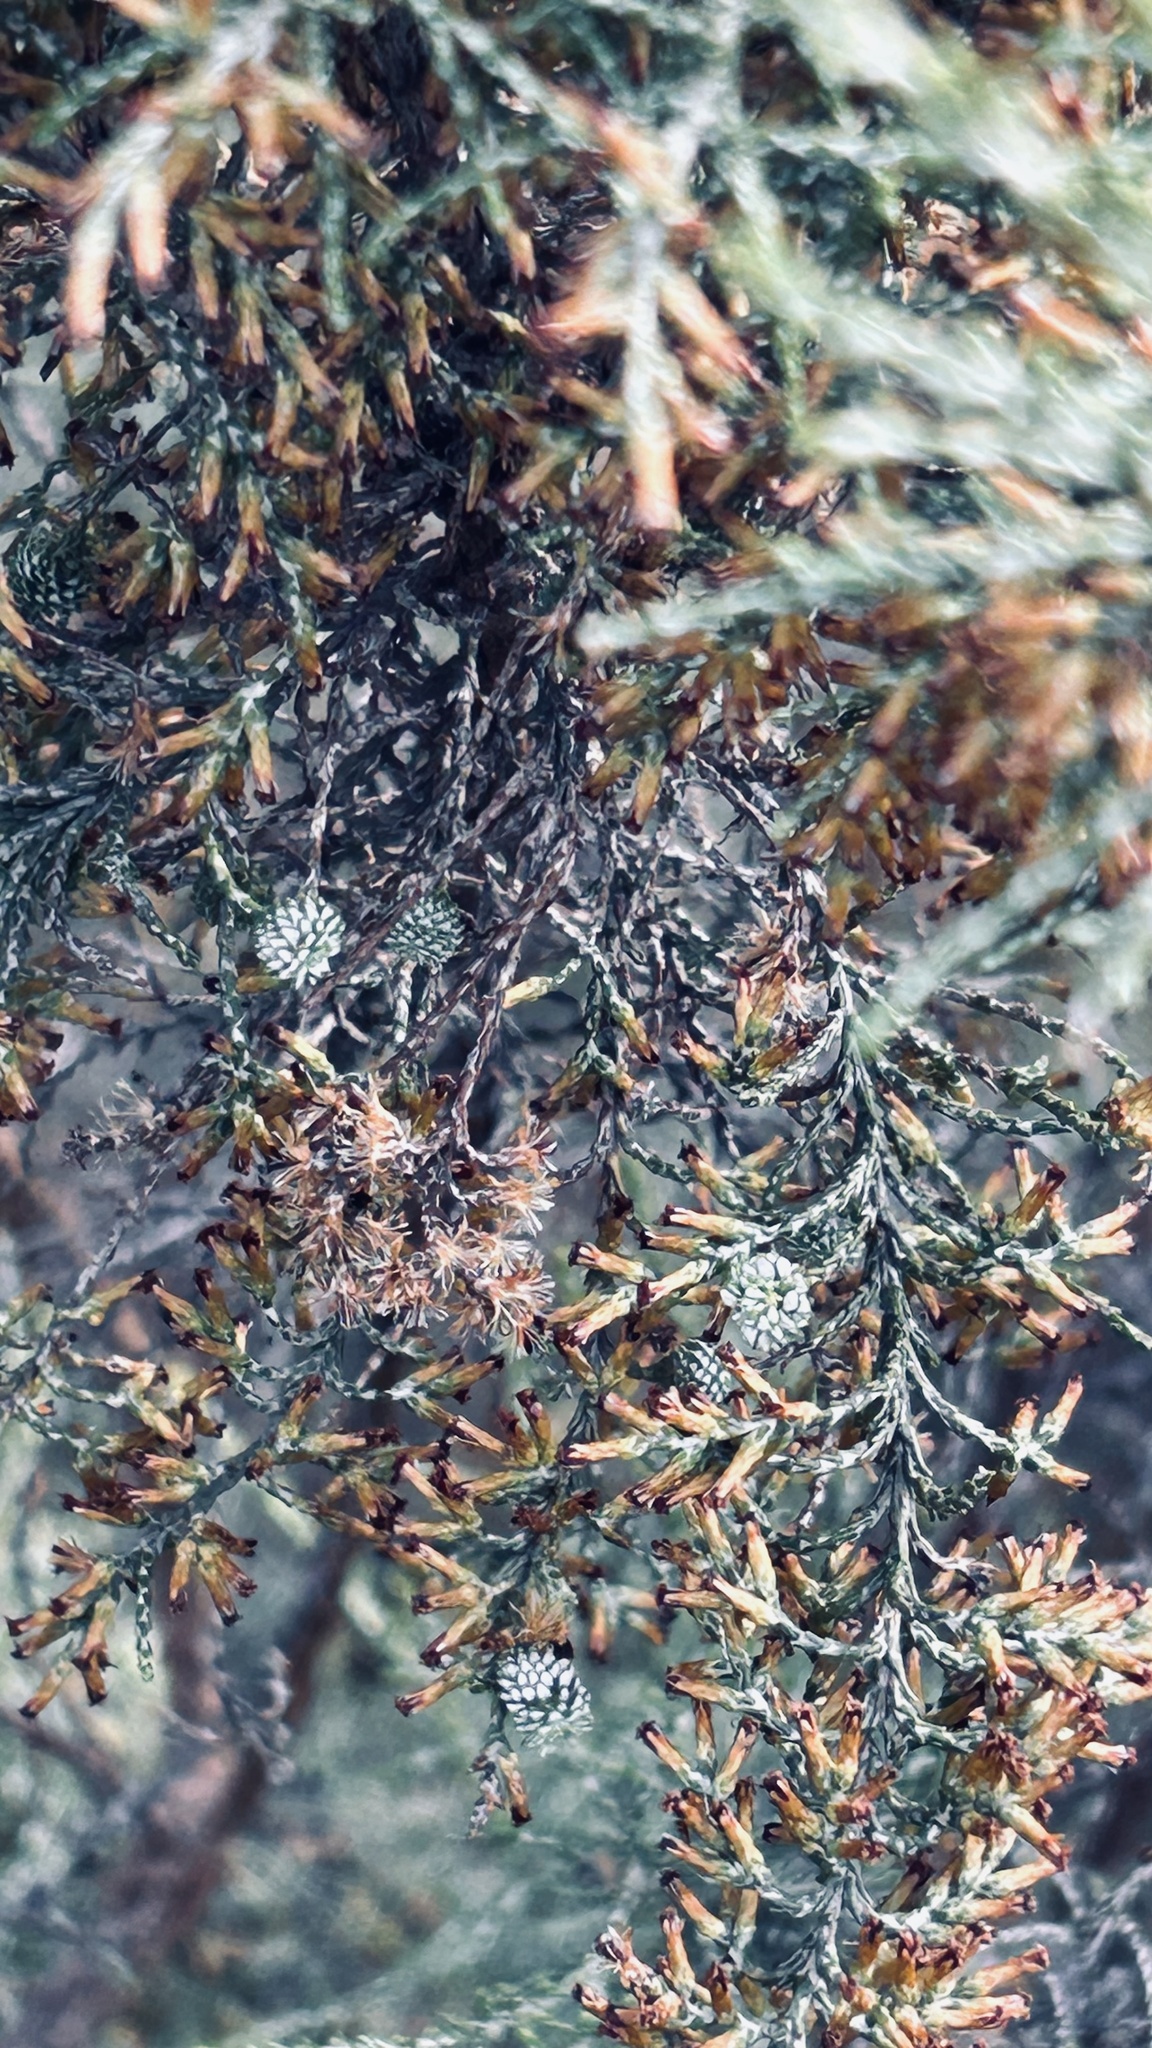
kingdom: Plantae
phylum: Tracheophyta
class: Magnoliopsida
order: Asterales
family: Asteraceae
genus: Dicerothamnus
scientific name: Dicerothamnus rhinocerotis
